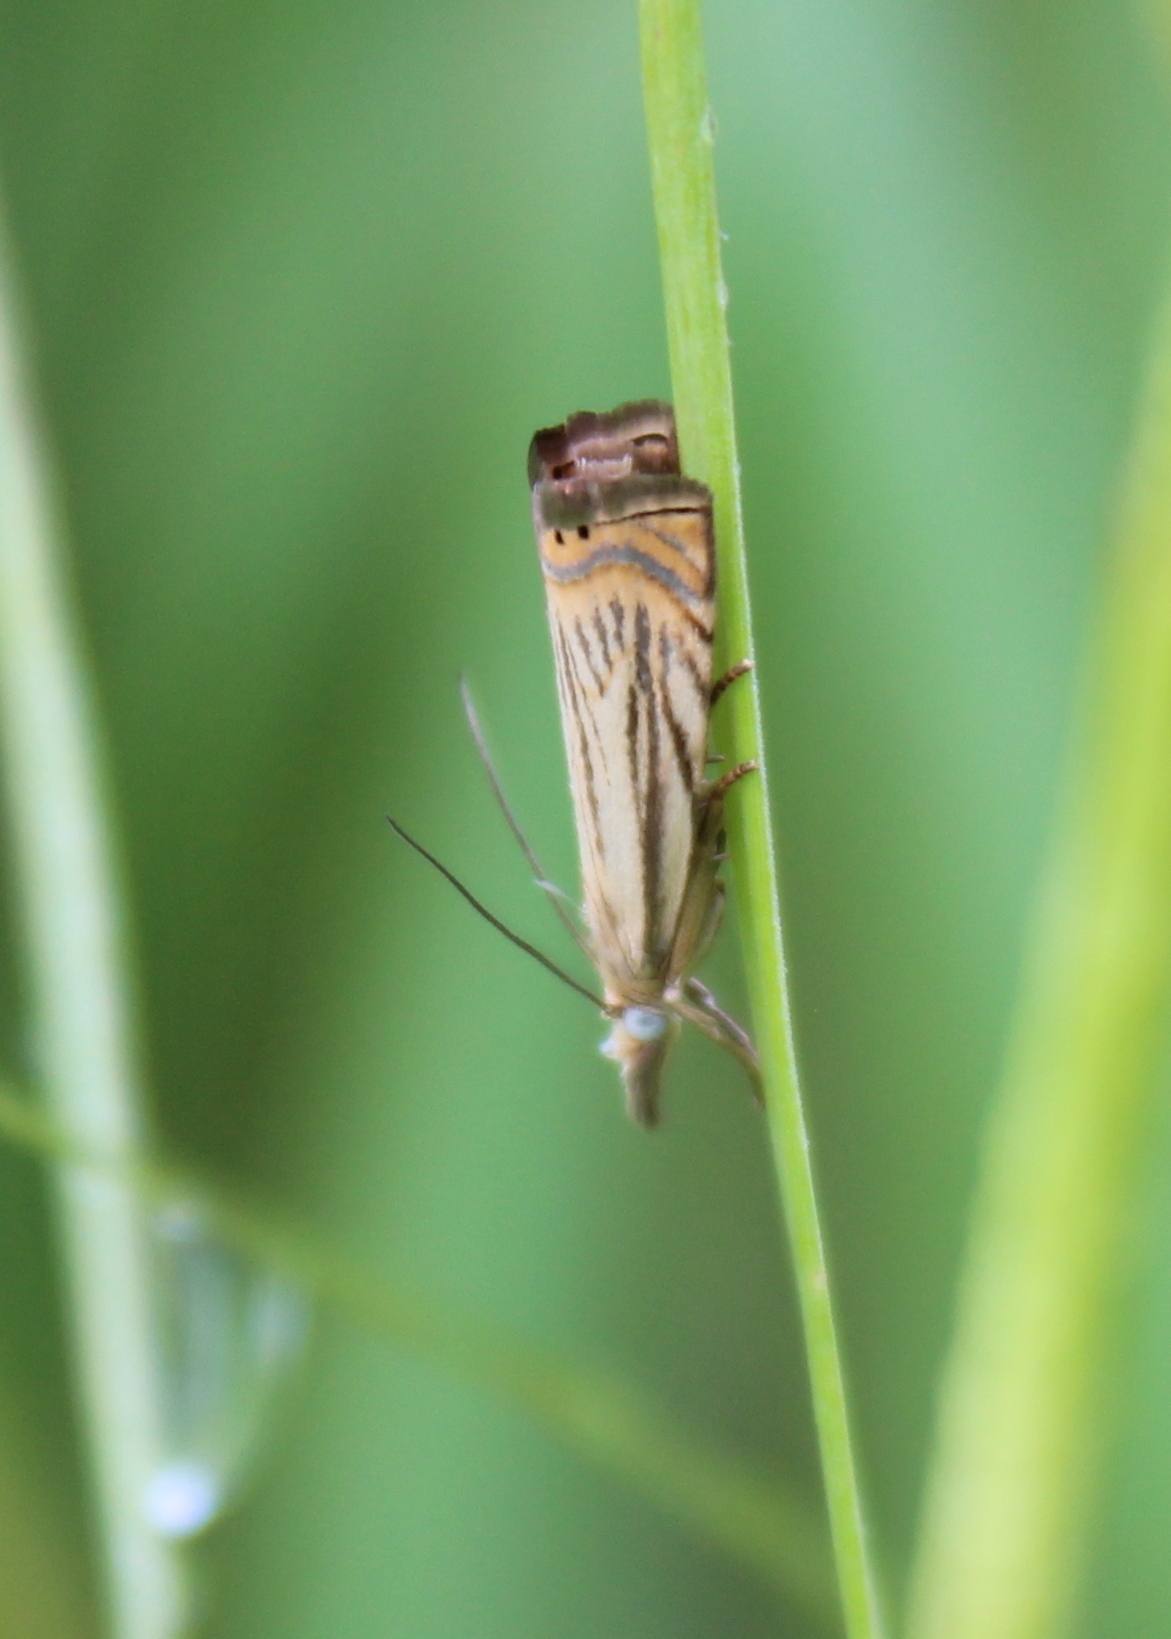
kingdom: Animalia
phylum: Arthropoda
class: Insecta
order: Lepidoptera
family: Crambidae
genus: Chrysoteuchia
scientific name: Chrysoteuchia topiarius
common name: Topiary grass-veneer
